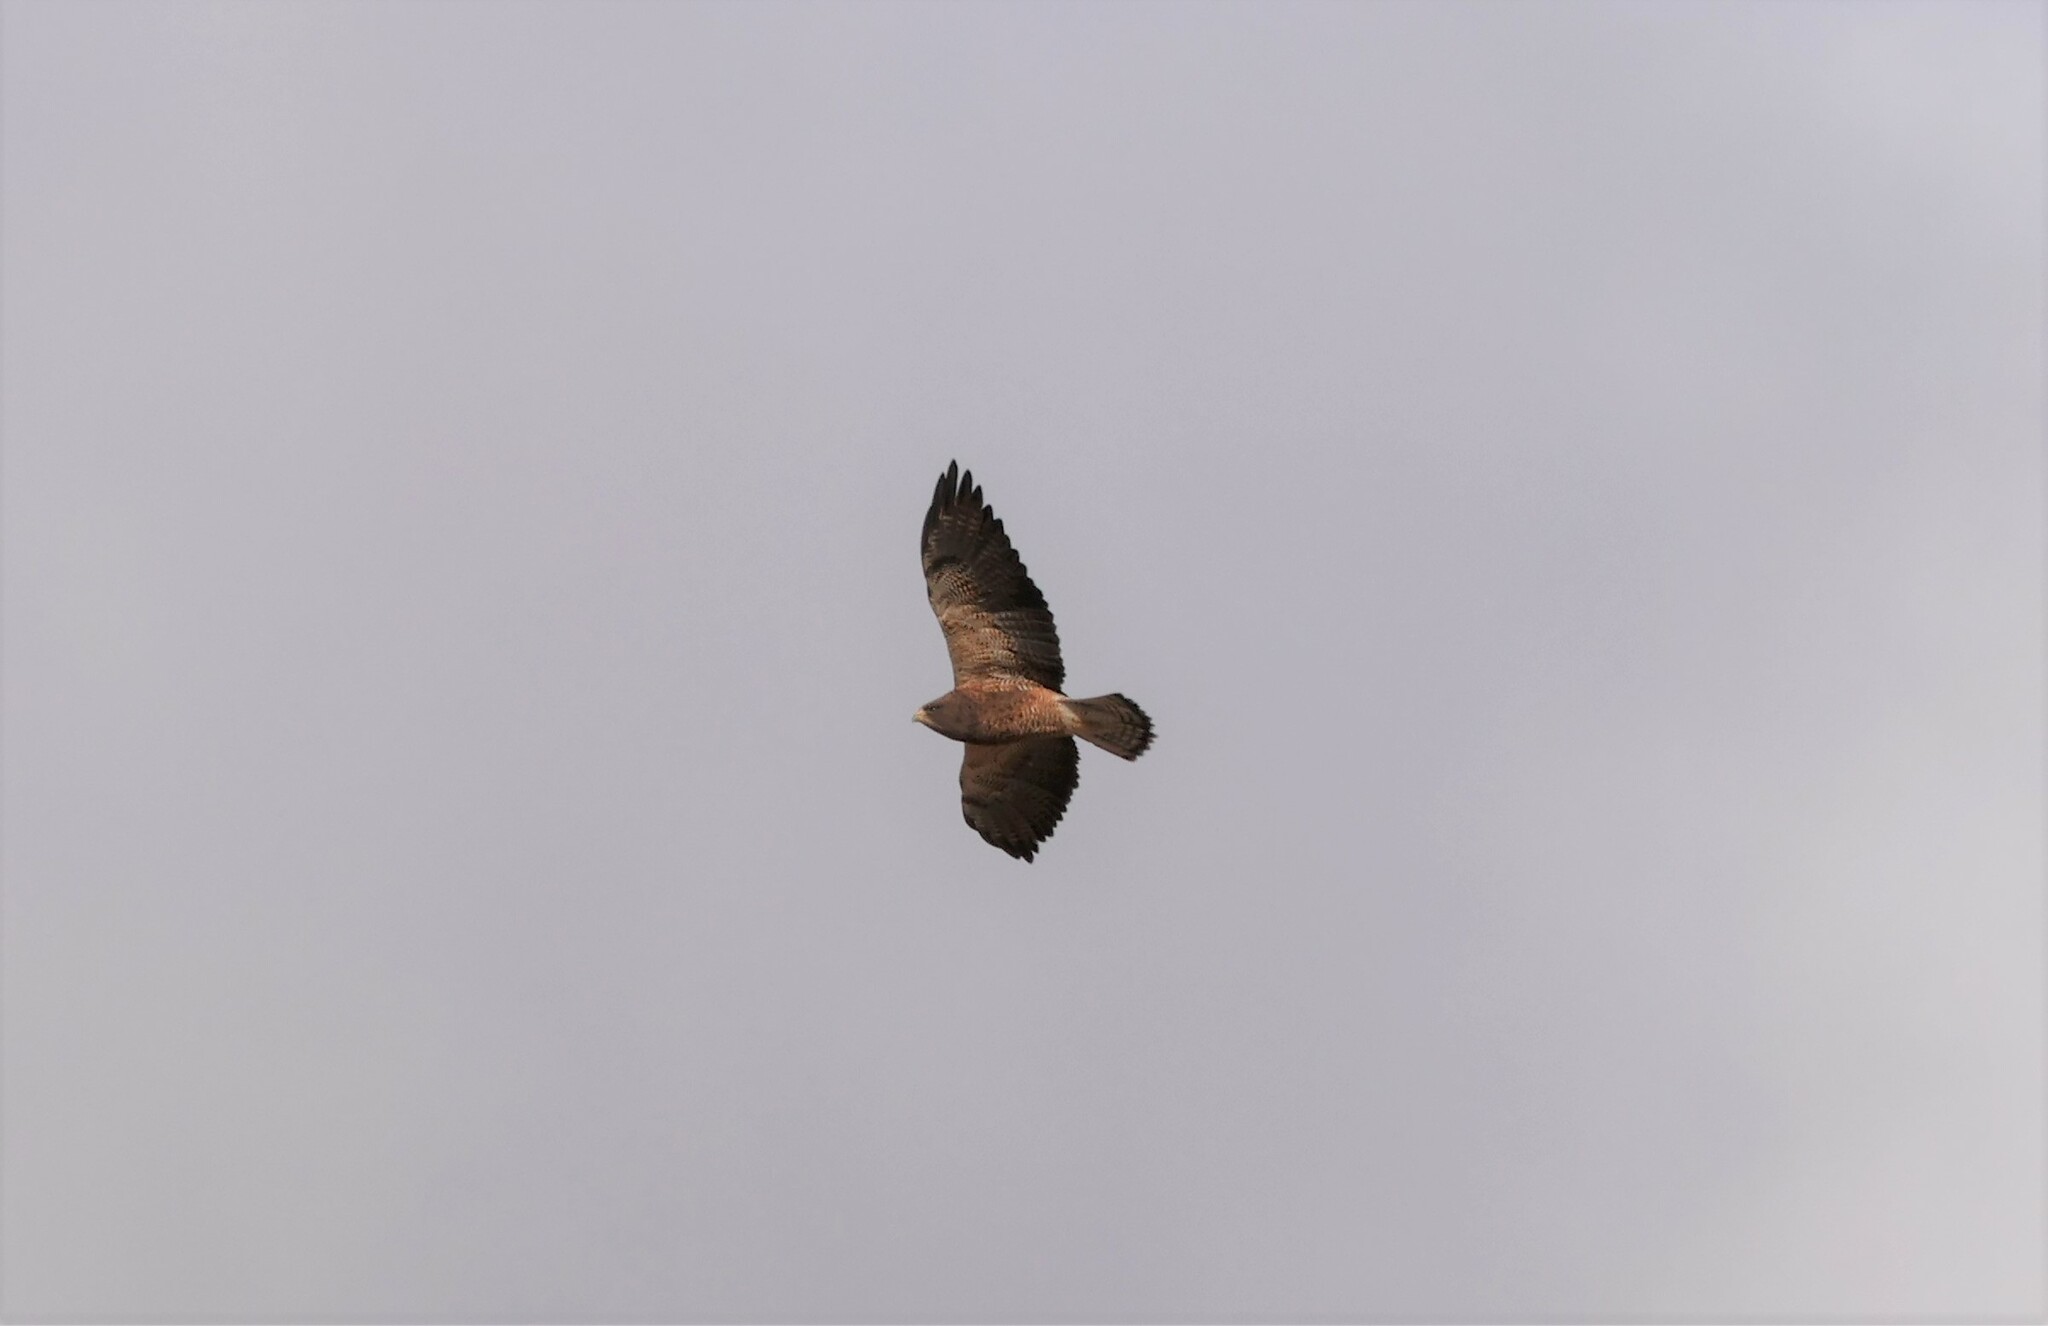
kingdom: Animalia
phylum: Chordata
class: Aves
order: Accipitriformes
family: Accipitridae
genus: Buteo
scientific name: Buteo swainsoni
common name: Swainson's hawk
